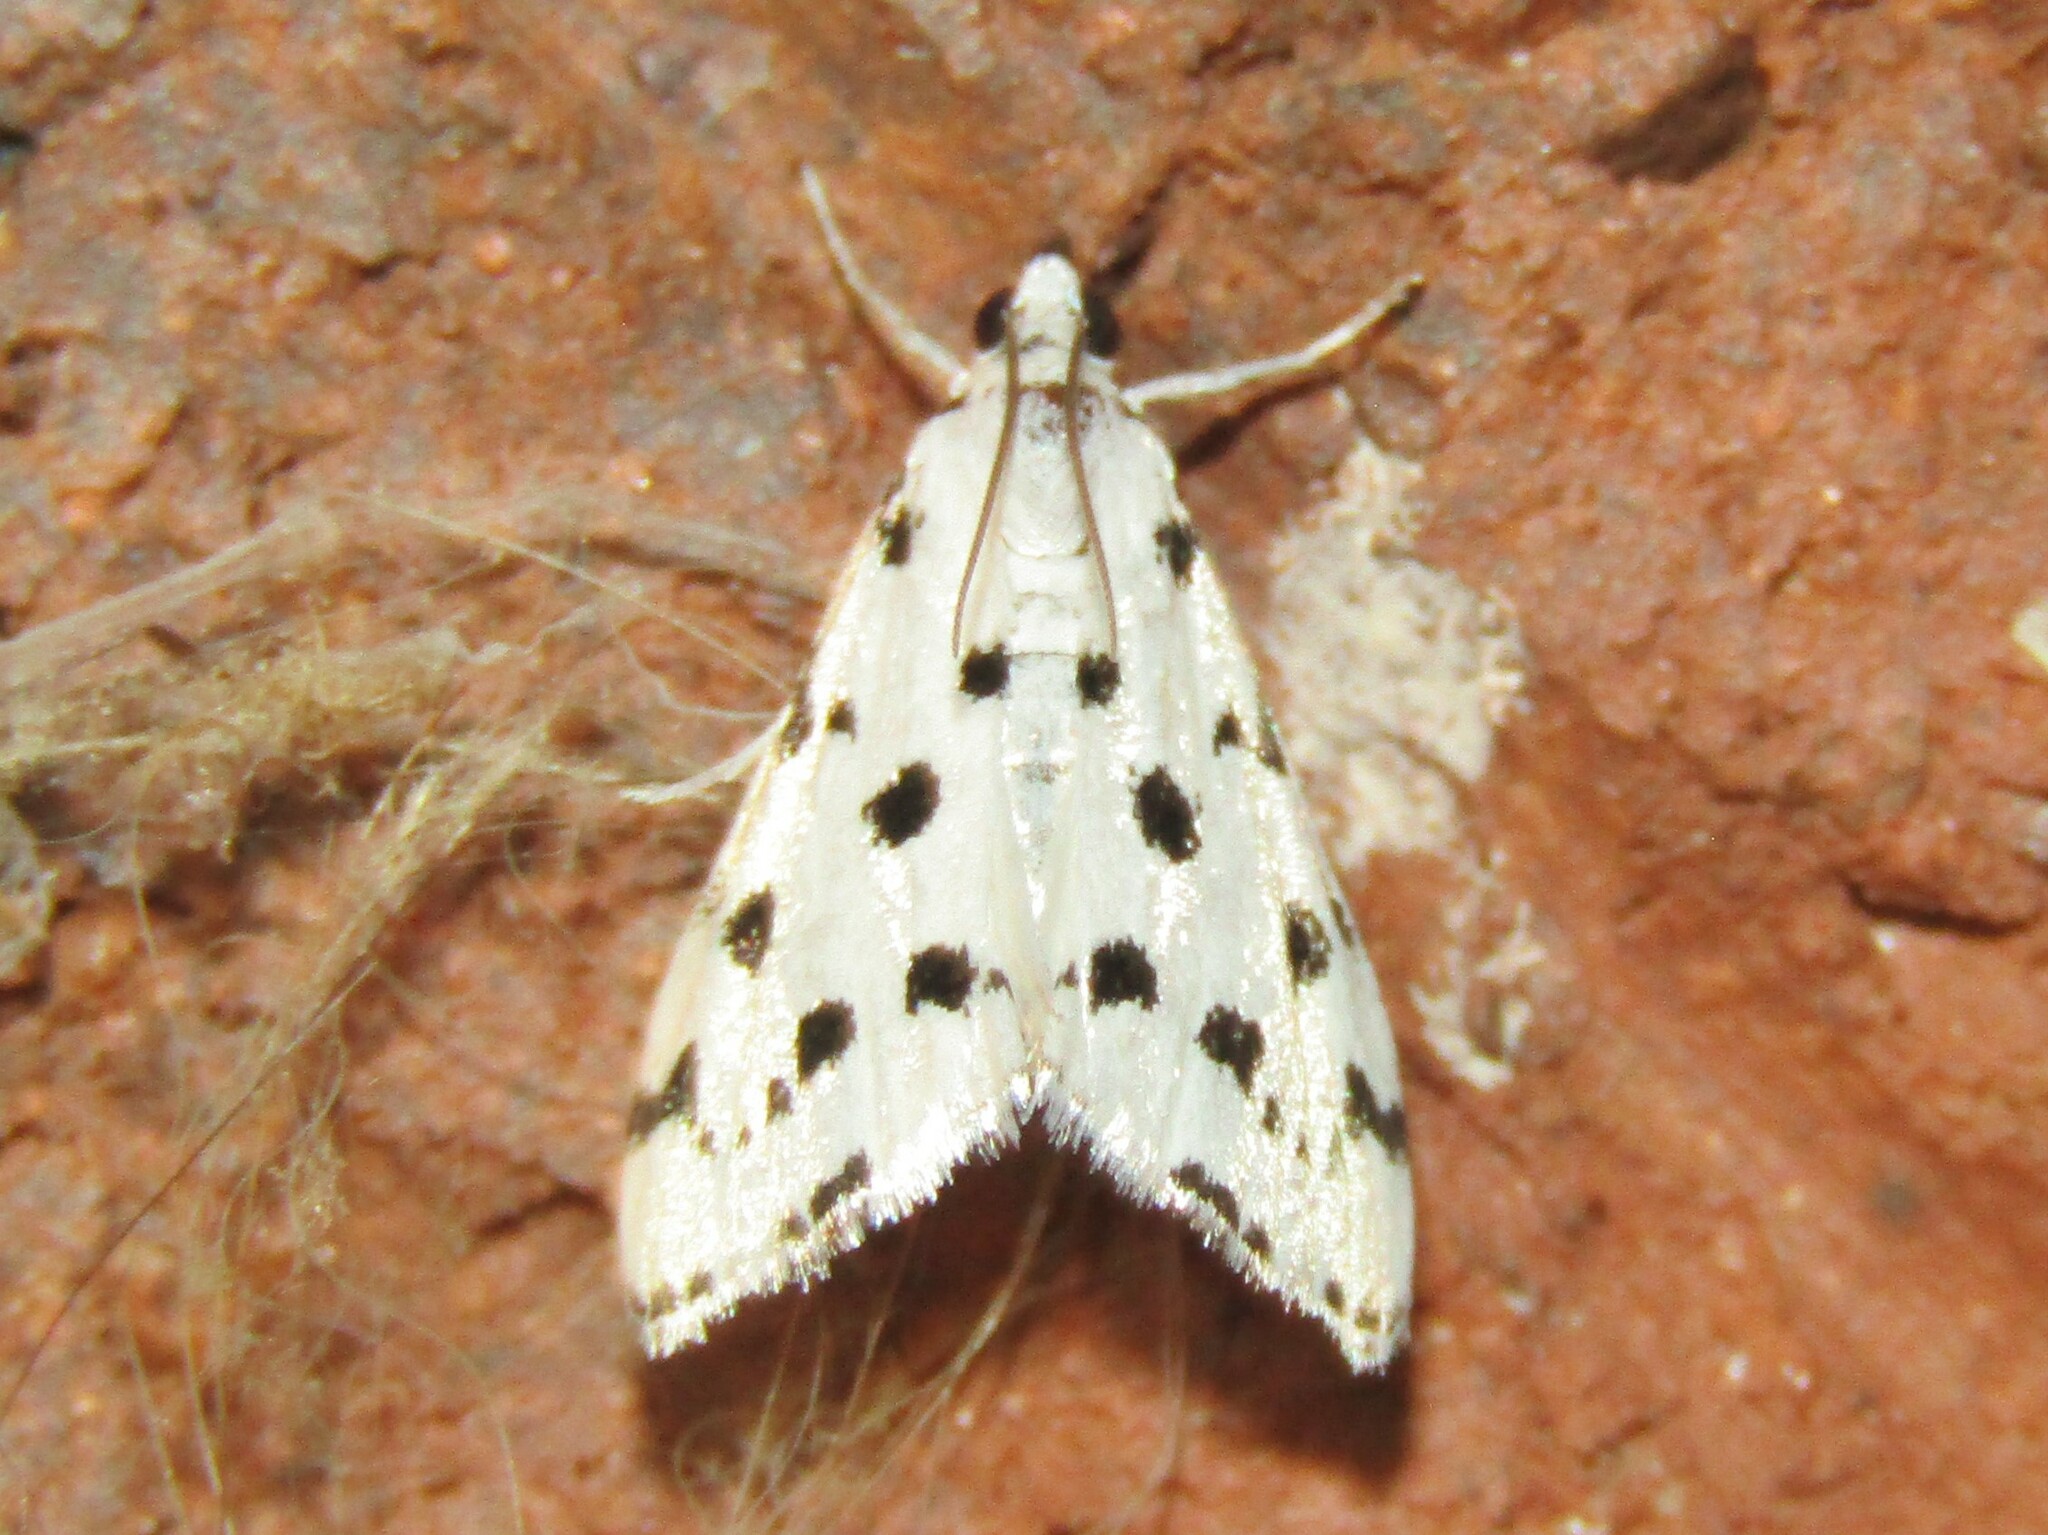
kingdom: Animalia
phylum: Arthropoda
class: Insecta
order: Lepidoptera
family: Crambidae
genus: Eustixia
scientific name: Eustixia pupula
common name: American cabbage pearl
